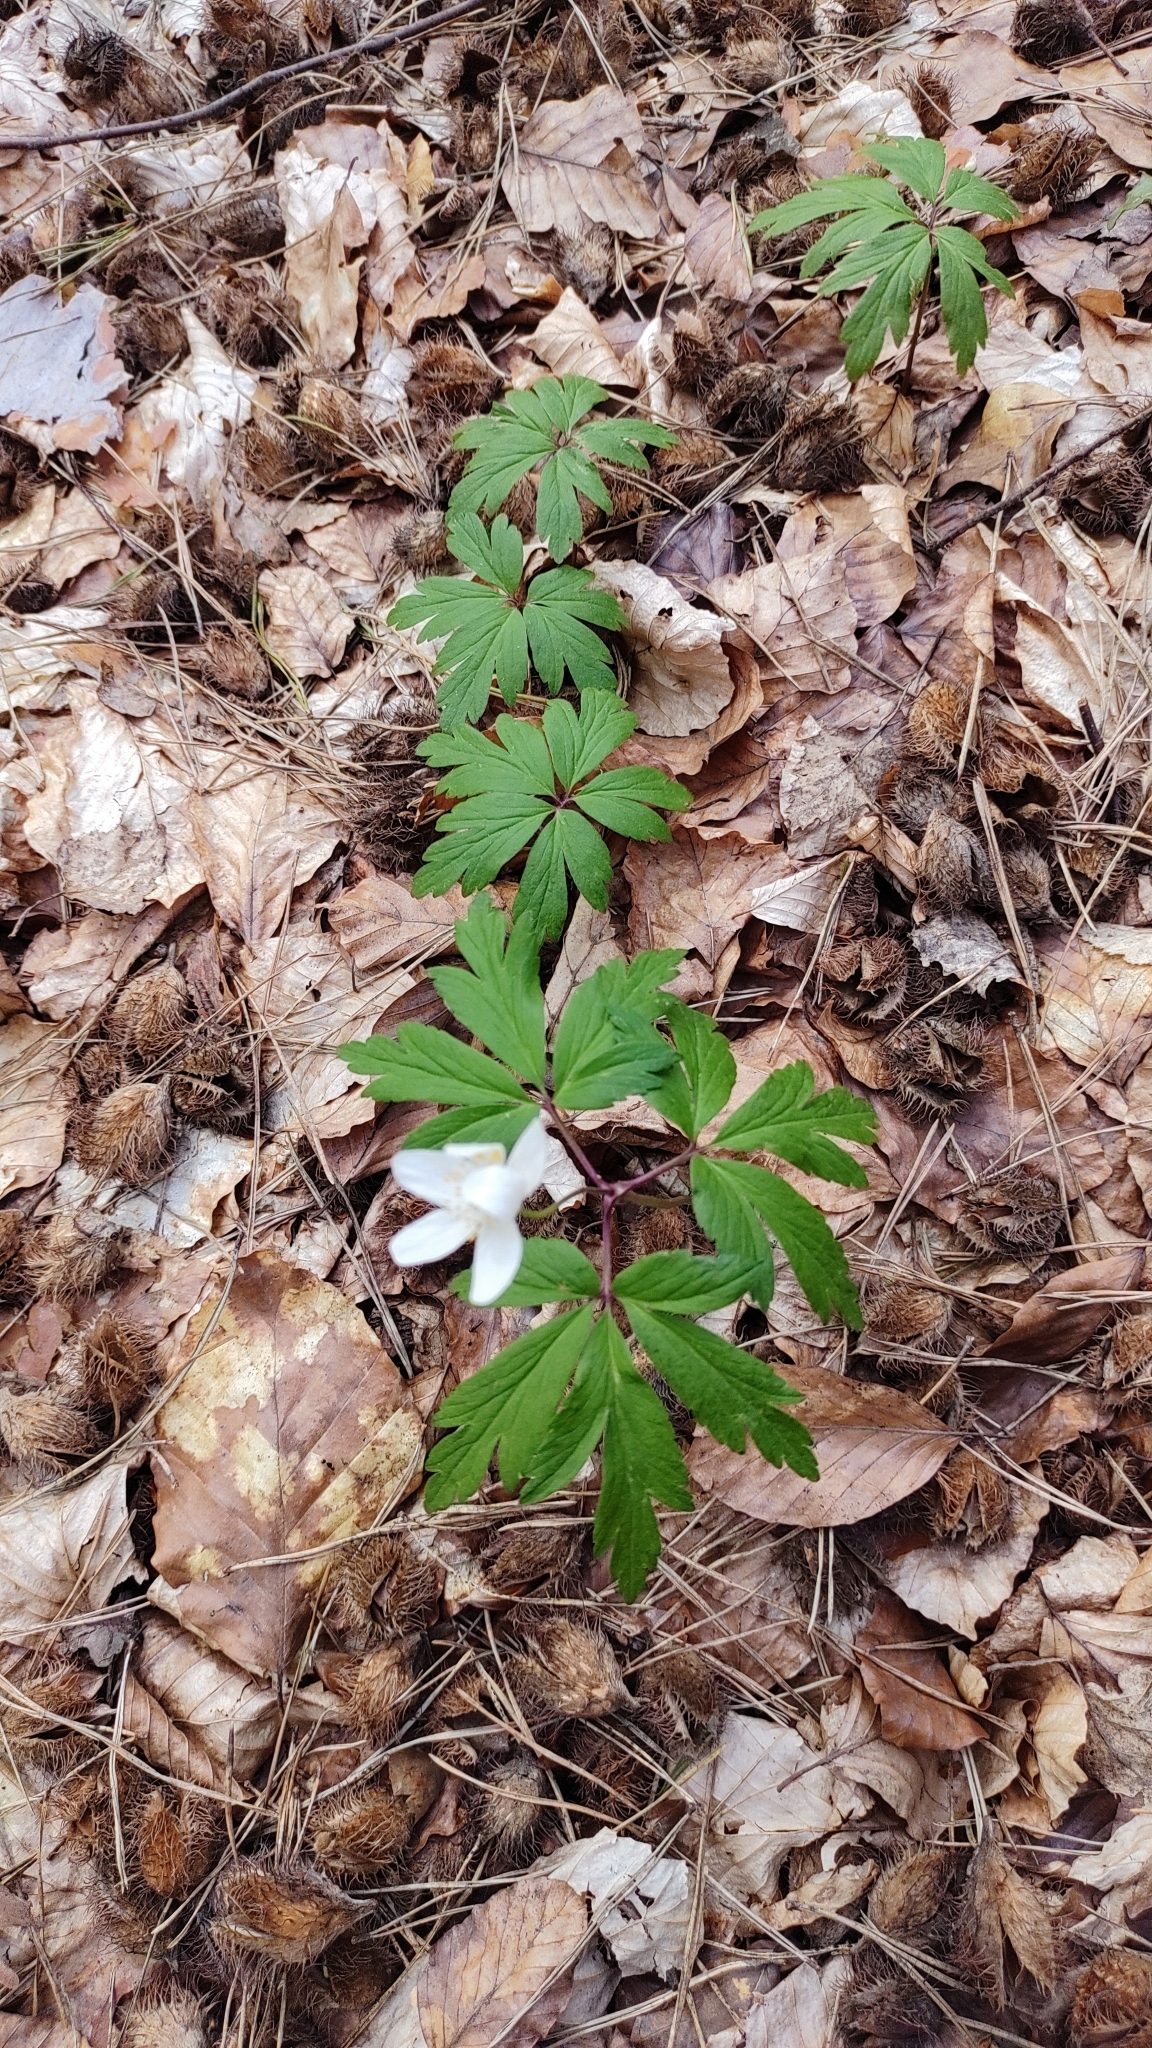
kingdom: Plantae
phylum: Tracheophyta
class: Magnoliopsida
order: Ranunculales
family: Ranunculaceae
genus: Anemone
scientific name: Anemone nemorosa
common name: Wood anemone
